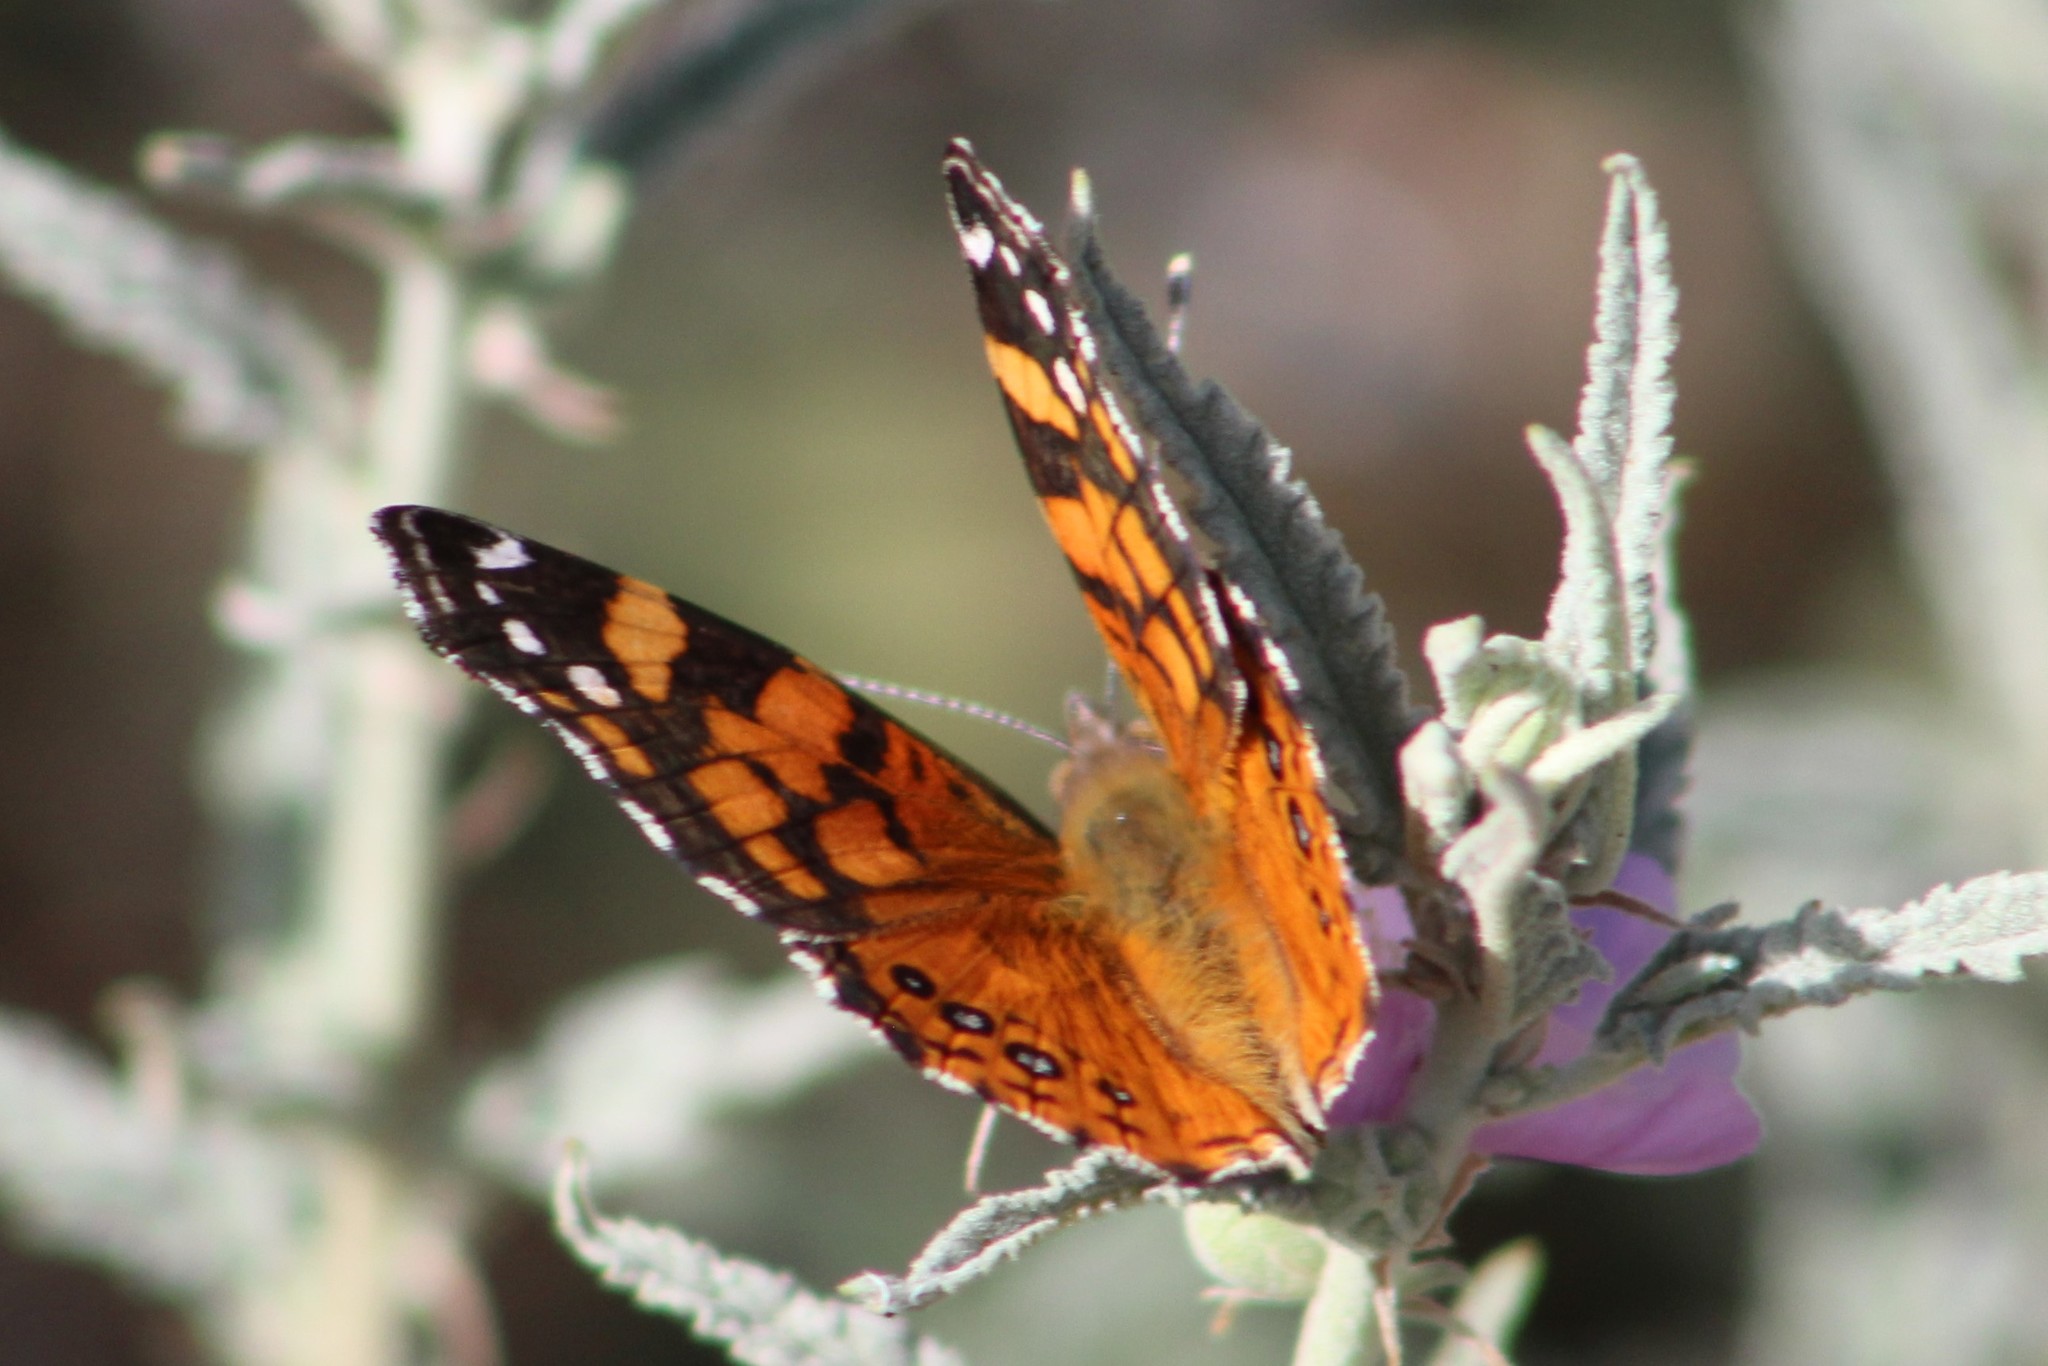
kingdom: Animalia
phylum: Arthropoda
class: Insecta
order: Lepidoptera
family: Nymphalidae
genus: Vanessa
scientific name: Vanessa annabella
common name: West coast lady
